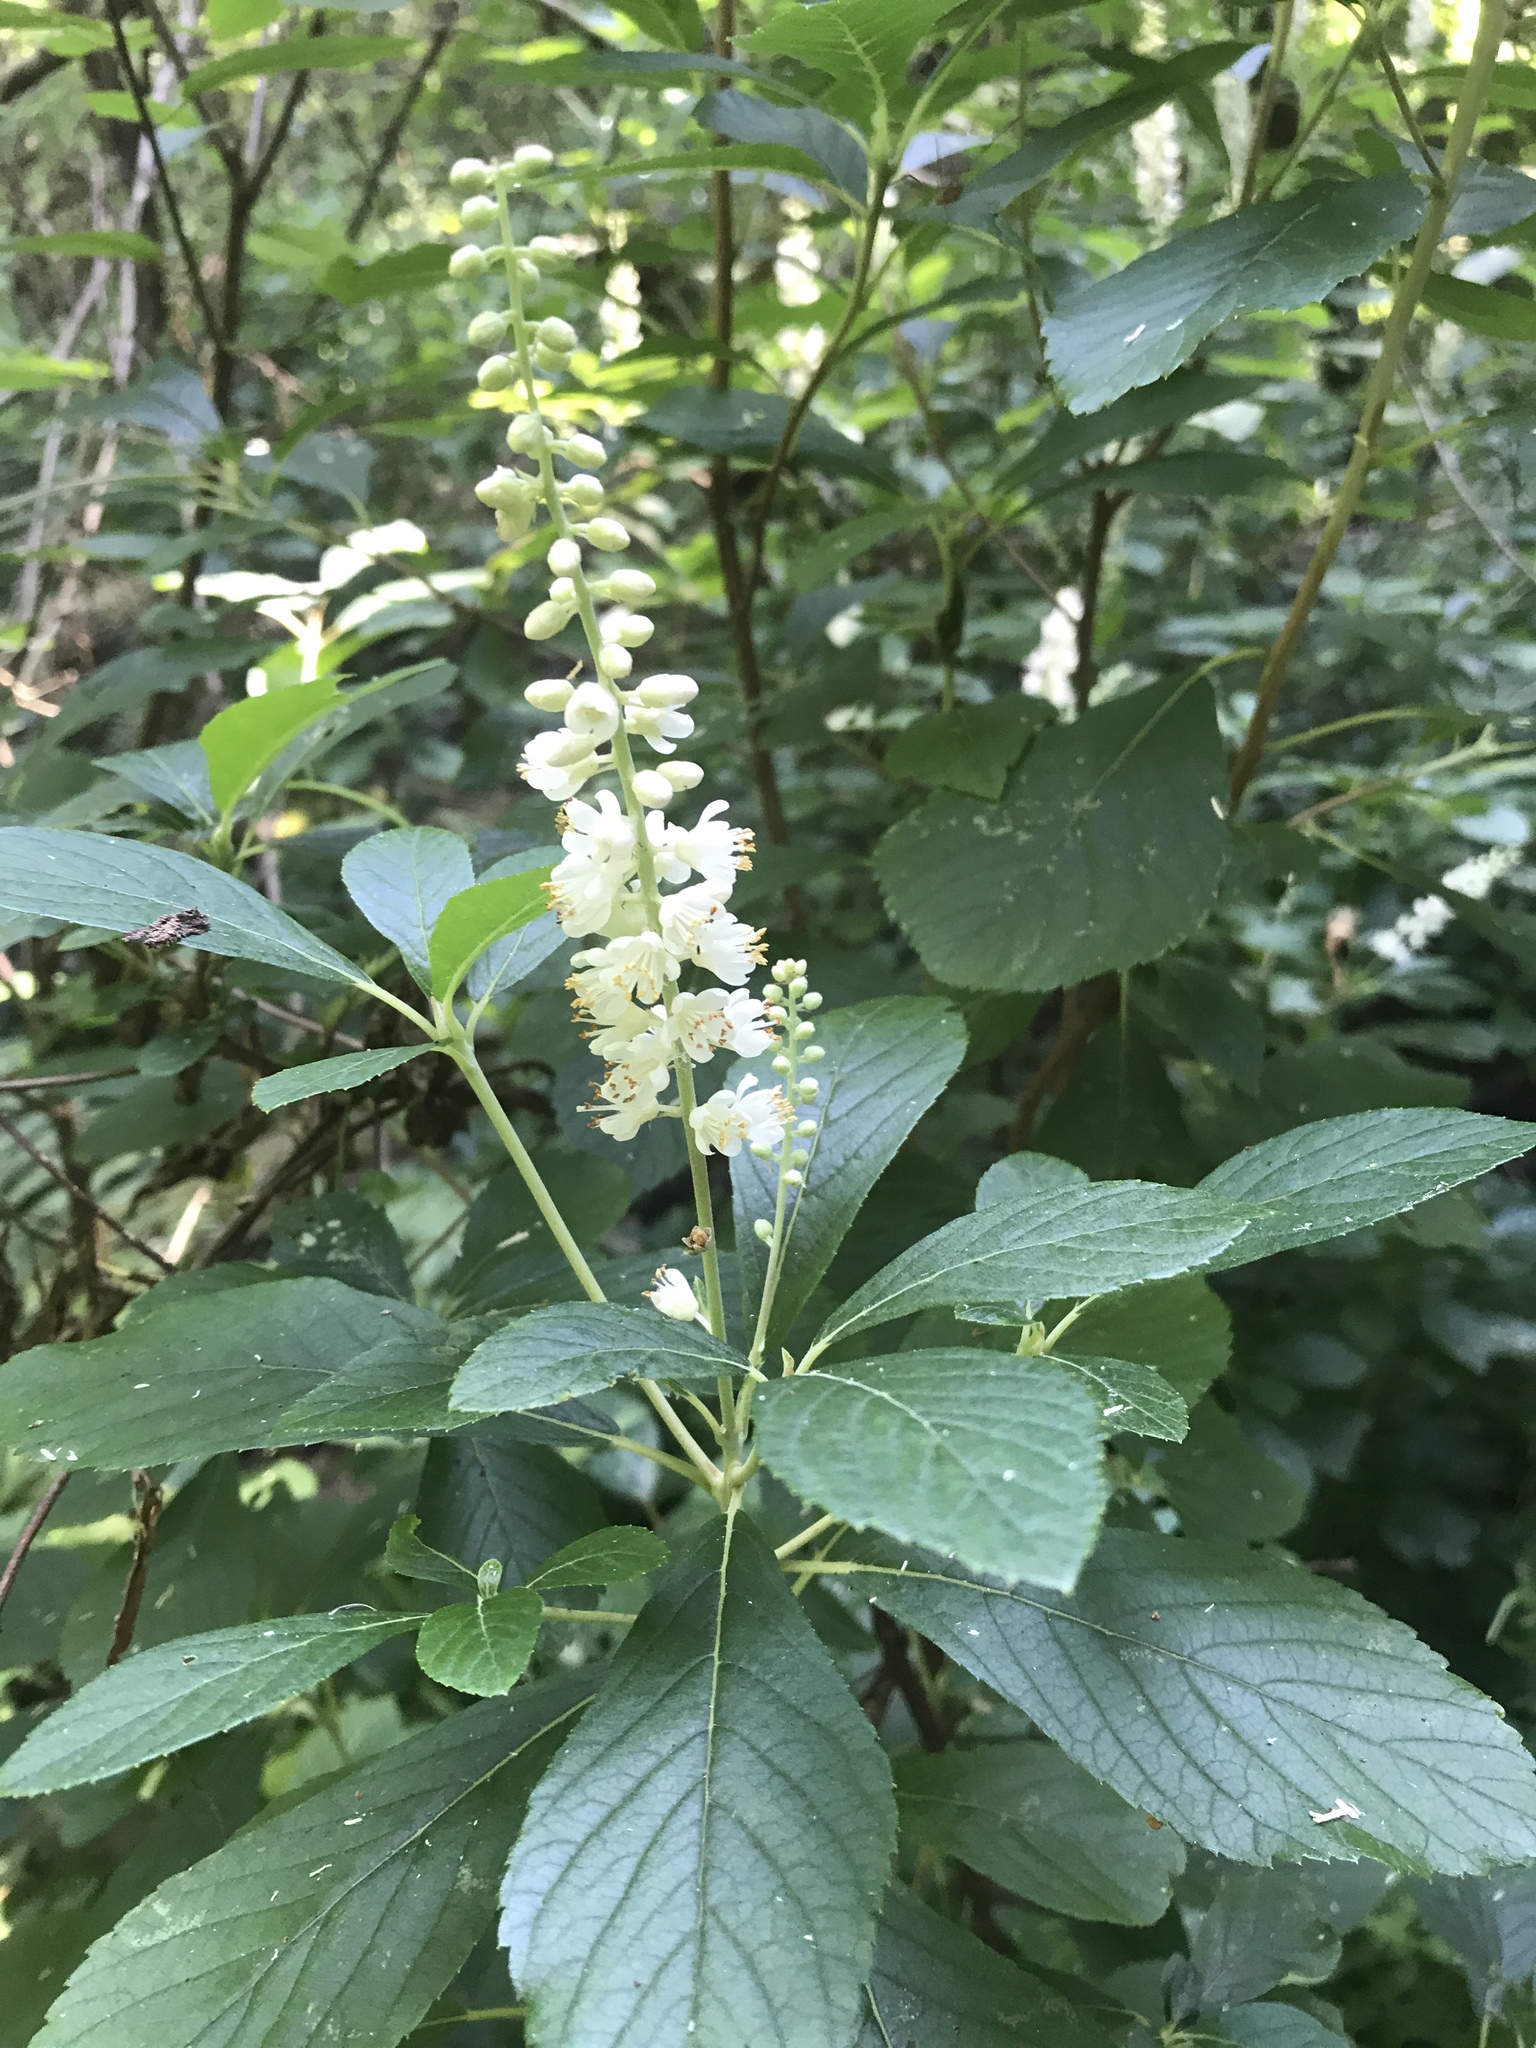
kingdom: Plantae
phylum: Tracheophyta
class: Magnoliopsida
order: Ericales
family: Clethraceae
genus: Clethra
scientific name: Clethra alnifolia
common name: Sweet pepperbush
